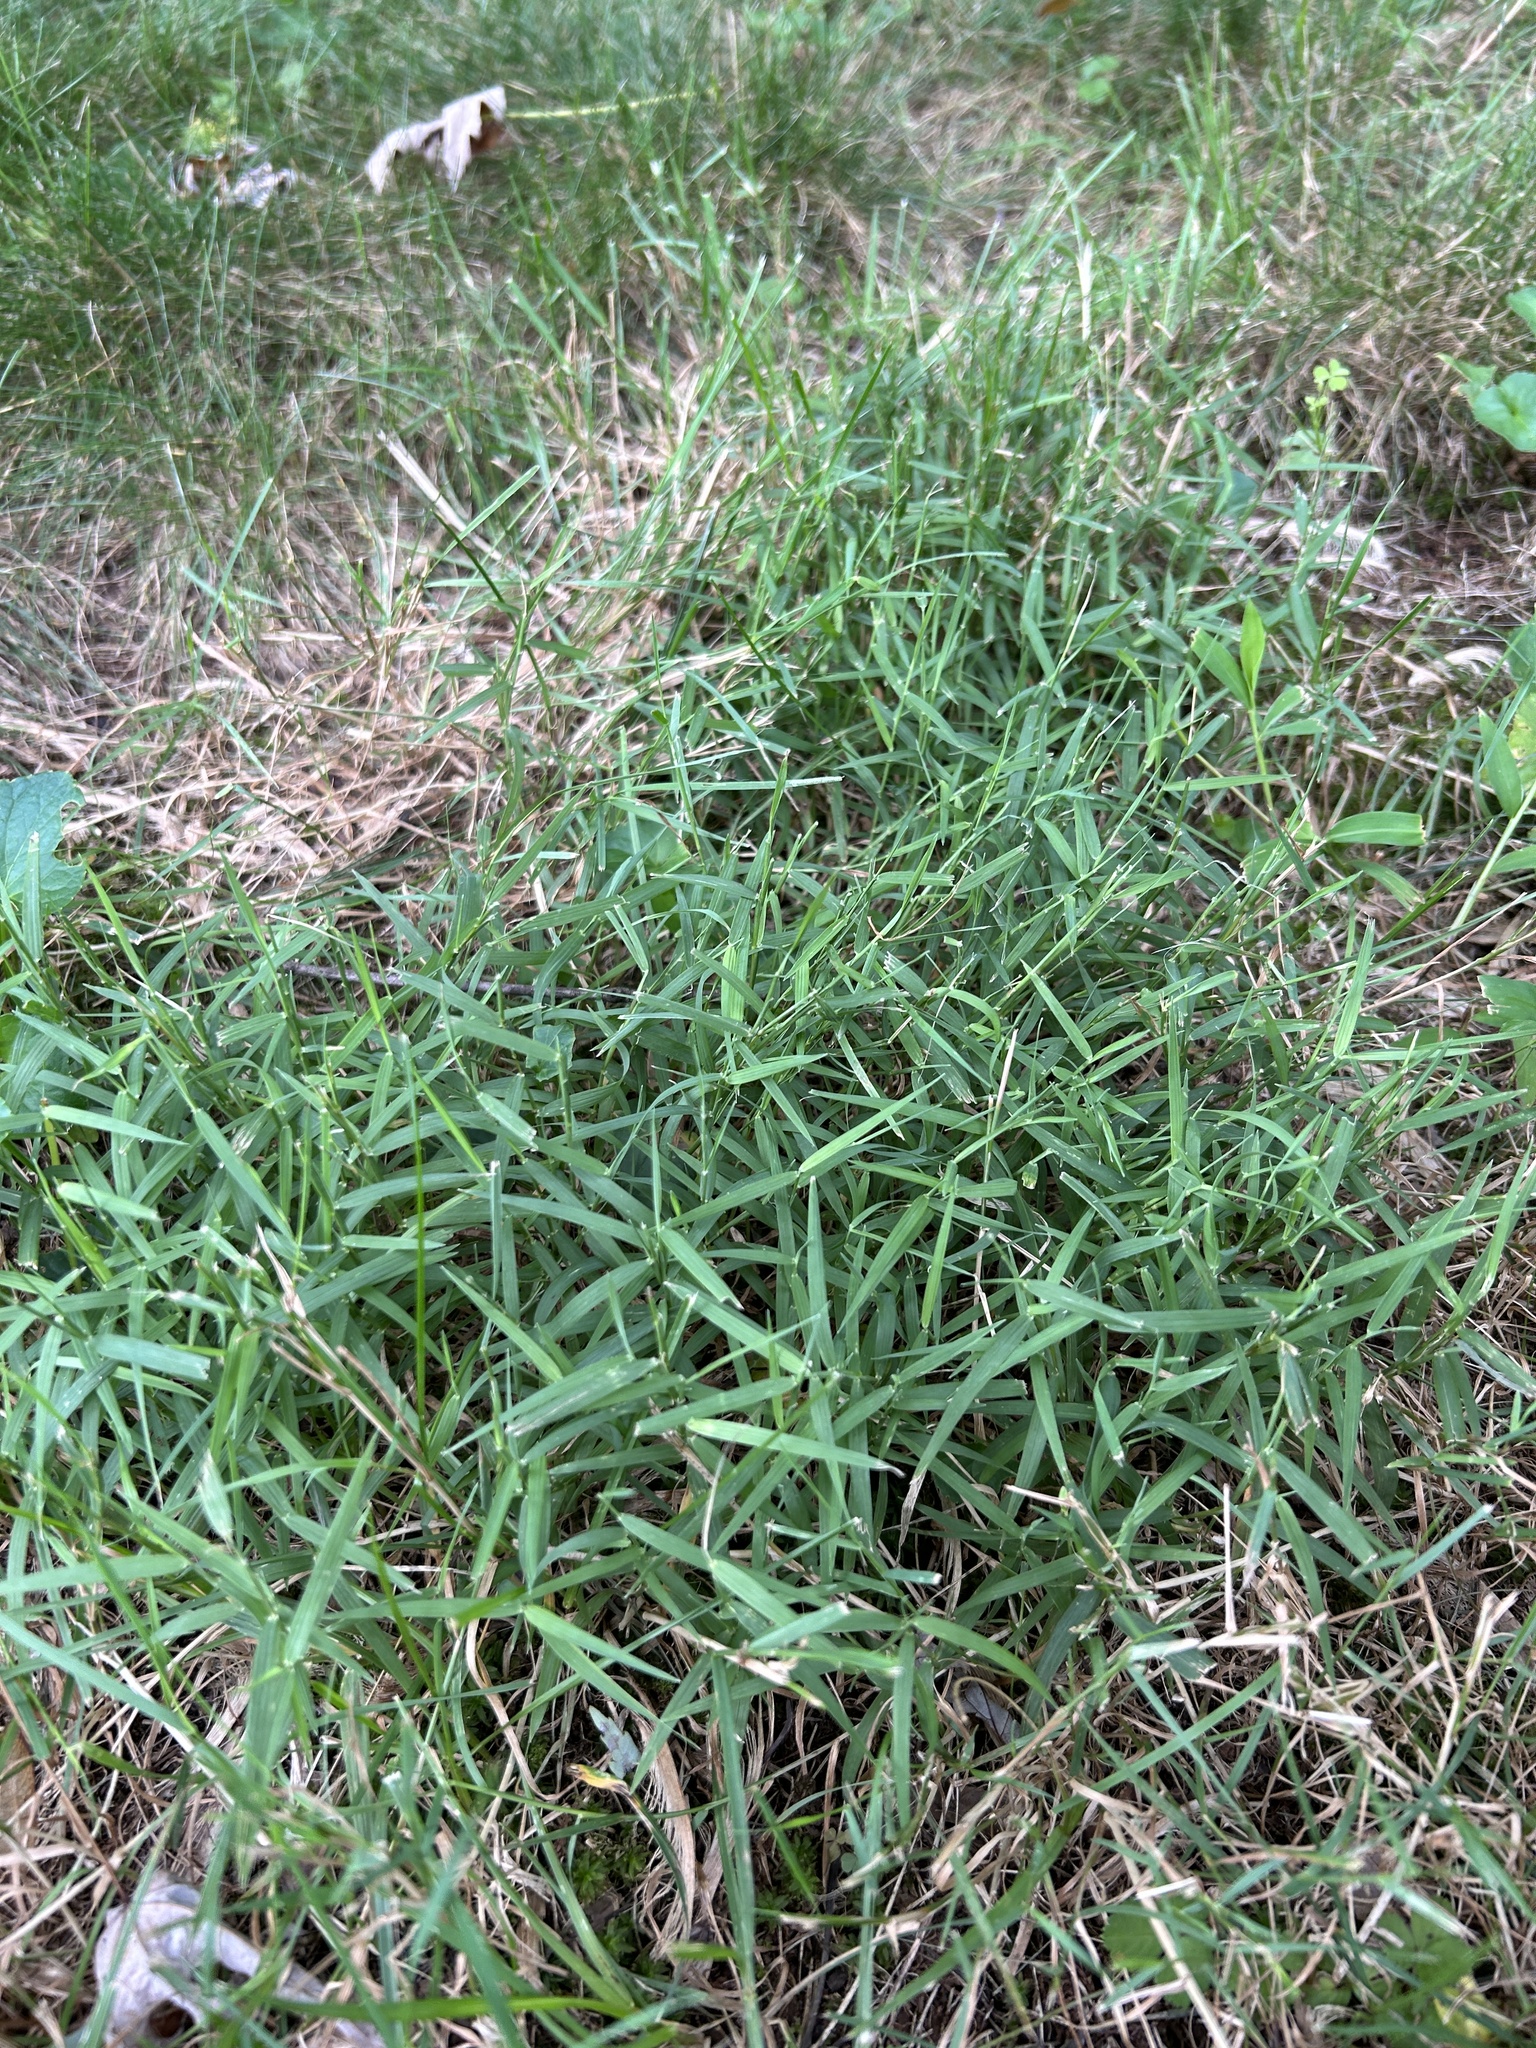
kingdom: Plantae
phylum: Tracheophyta
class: Liliopsida
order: Poales
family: Poaceae
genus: Muhlenbergia
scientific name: Muhlenbergia schreberi
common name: Nimblewill
